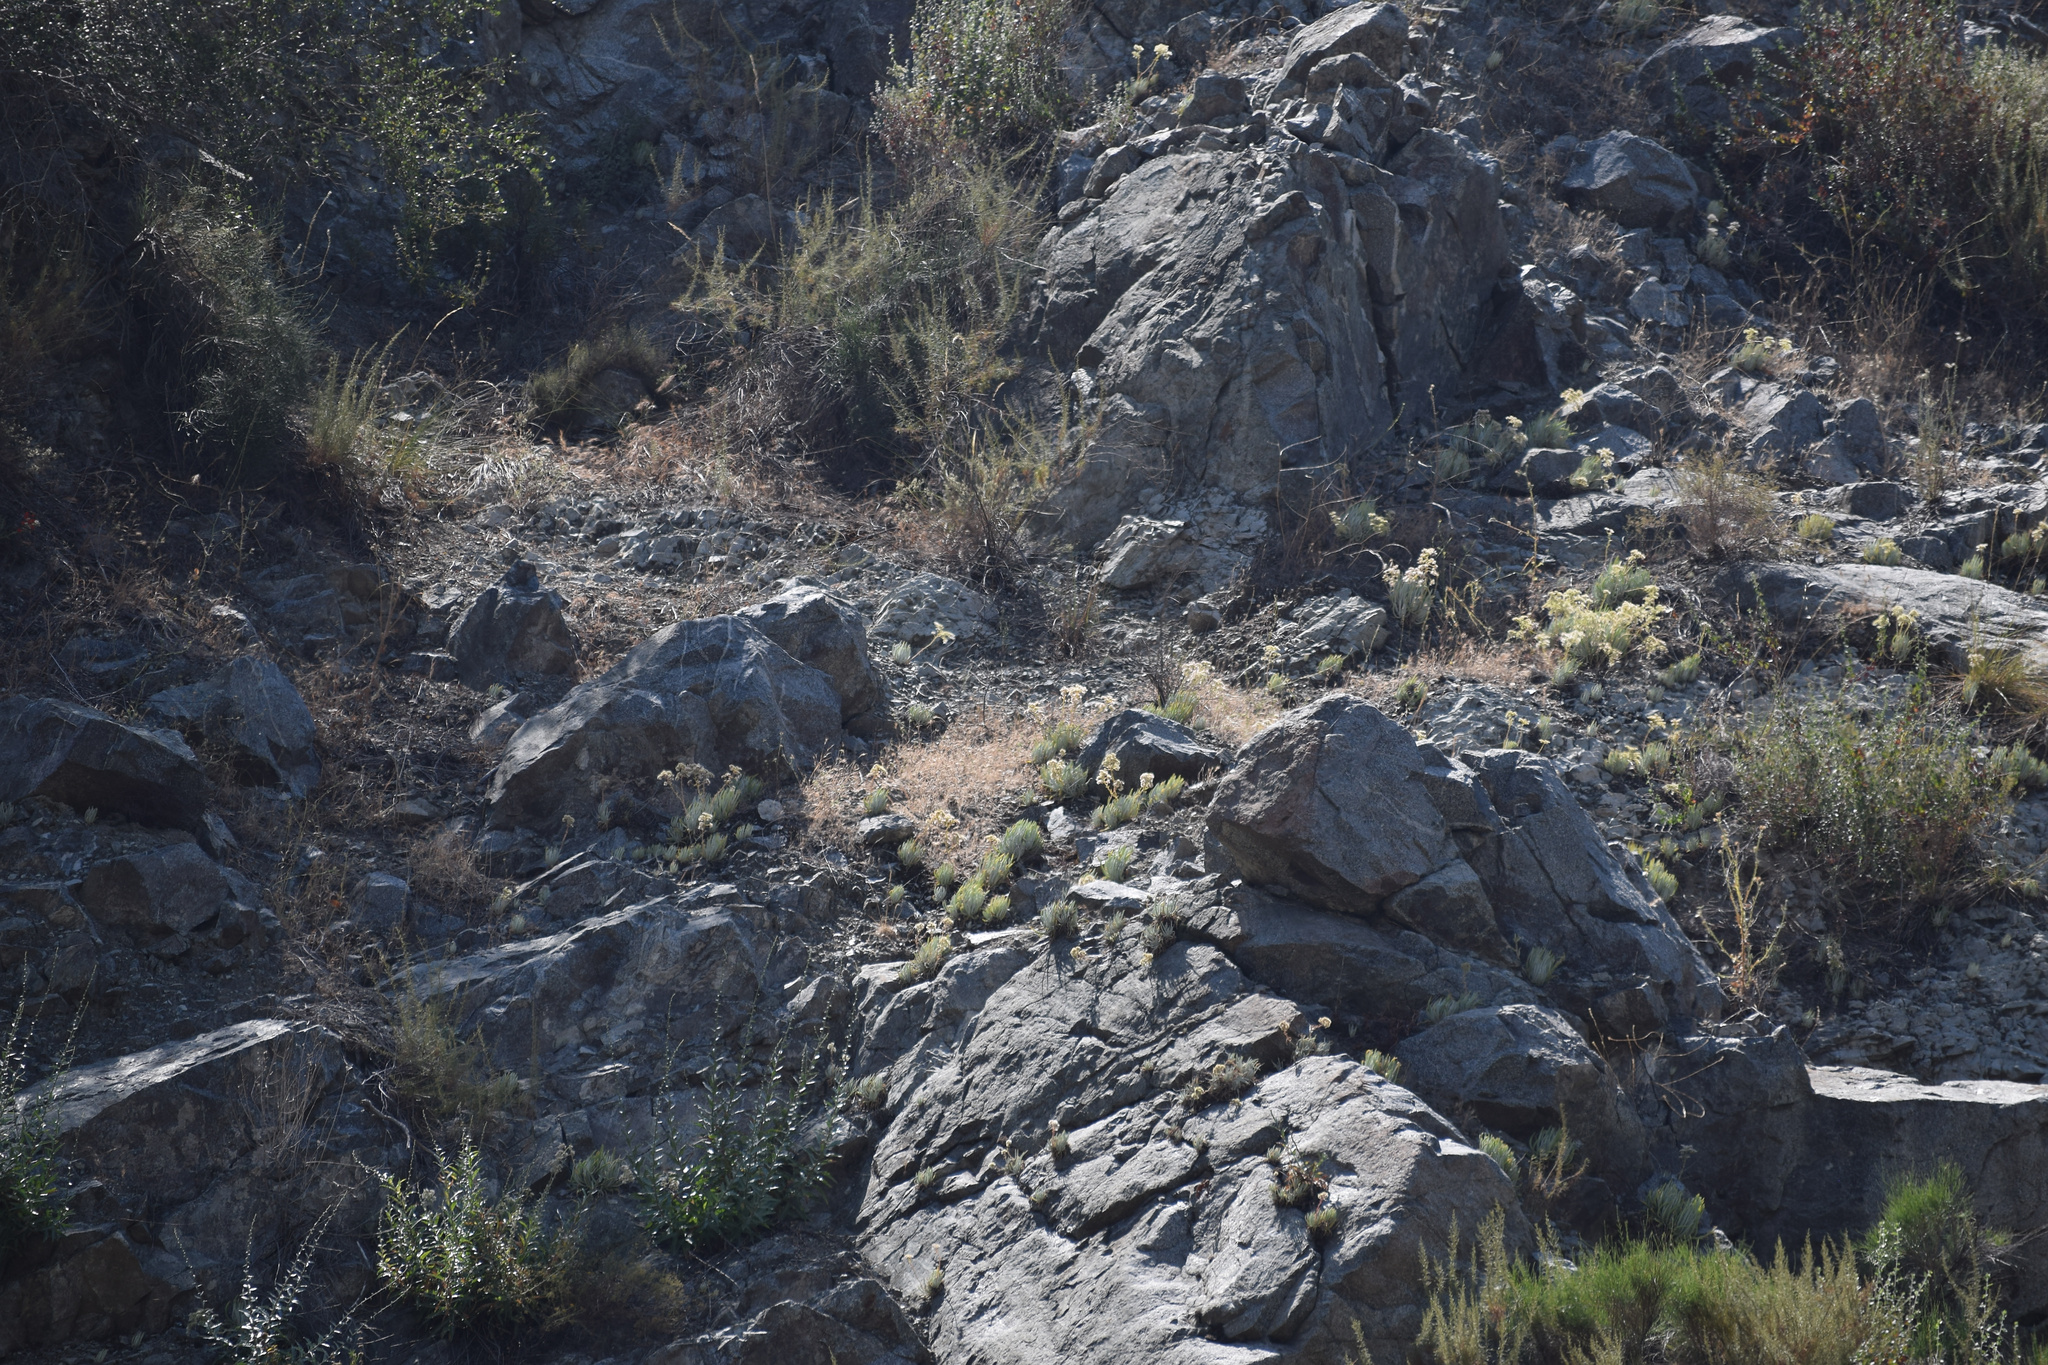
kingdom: Plantae
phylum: Tracheophyta
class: Magnoliopsida
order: Saxifragales
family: Crassulaceae
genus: Dudleya
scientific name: Dudleya densiflora
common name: San gabriel mountains dudleya
